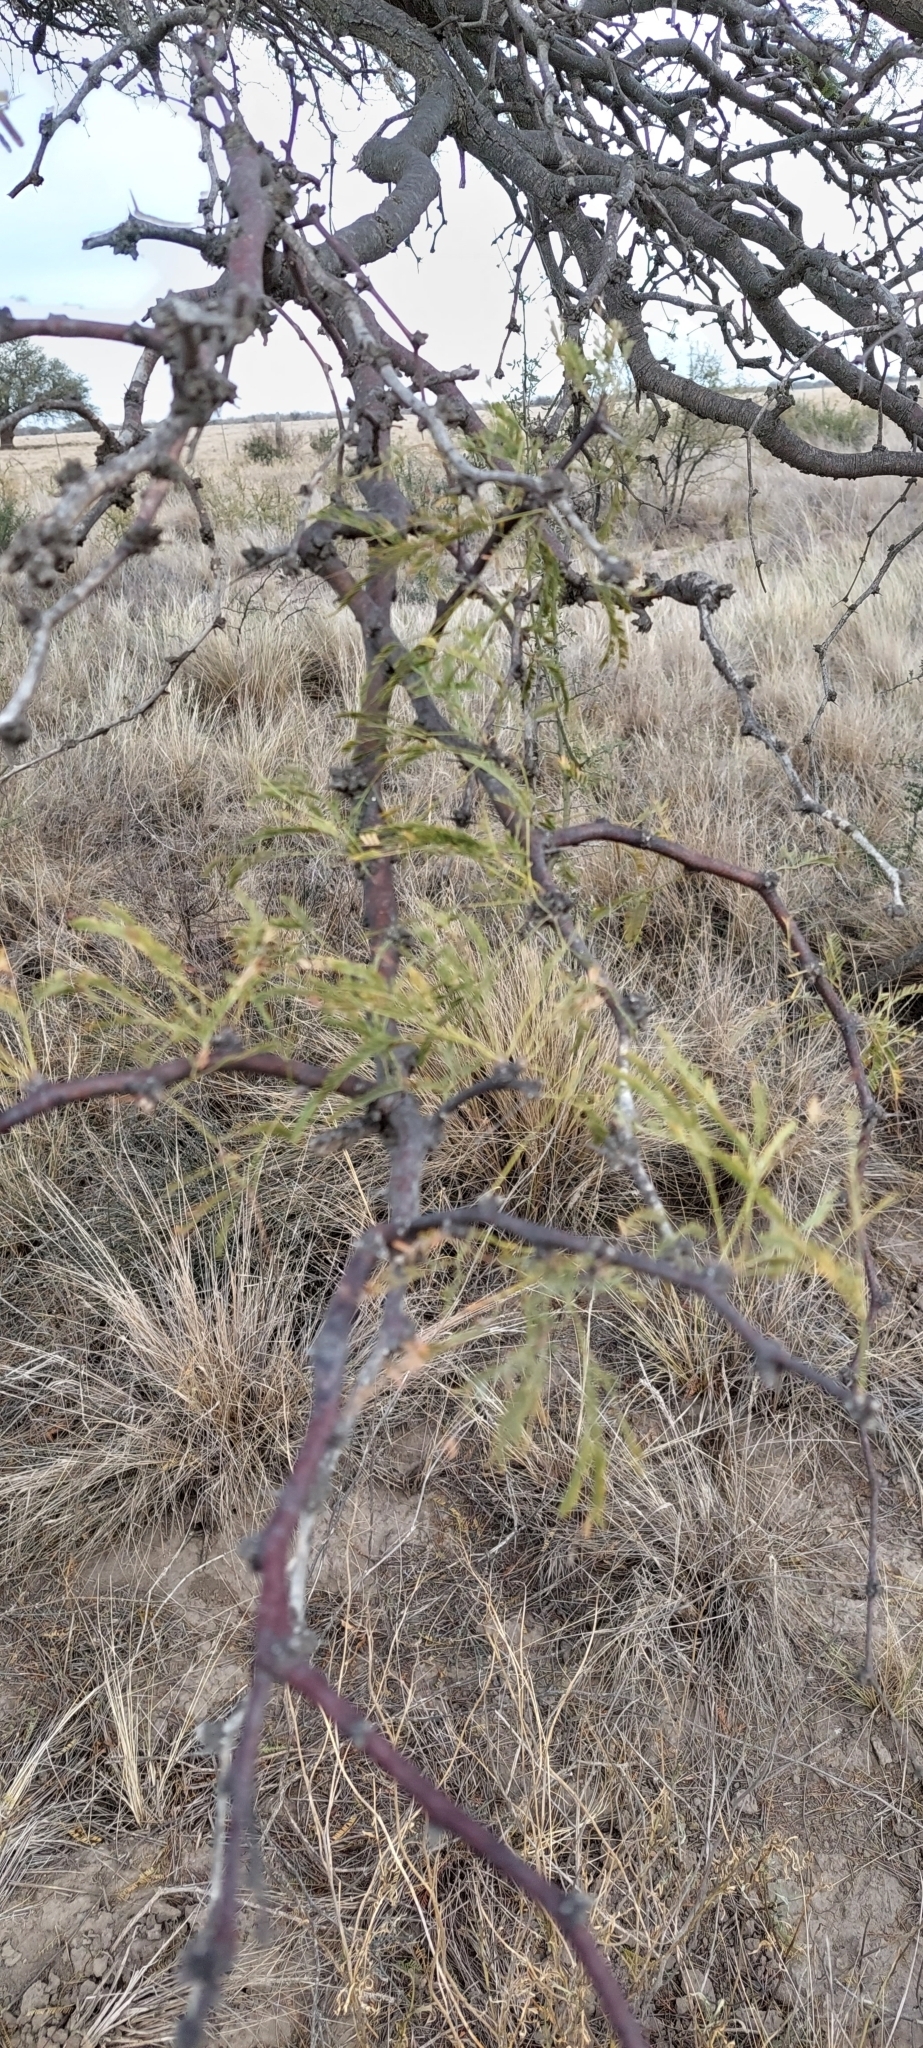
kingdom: Plantae
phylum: Tracheophyta
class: Magnoliopsida
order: Fabales
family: Fabaceae
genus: Prosopis
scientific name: Prosopis caldenia
